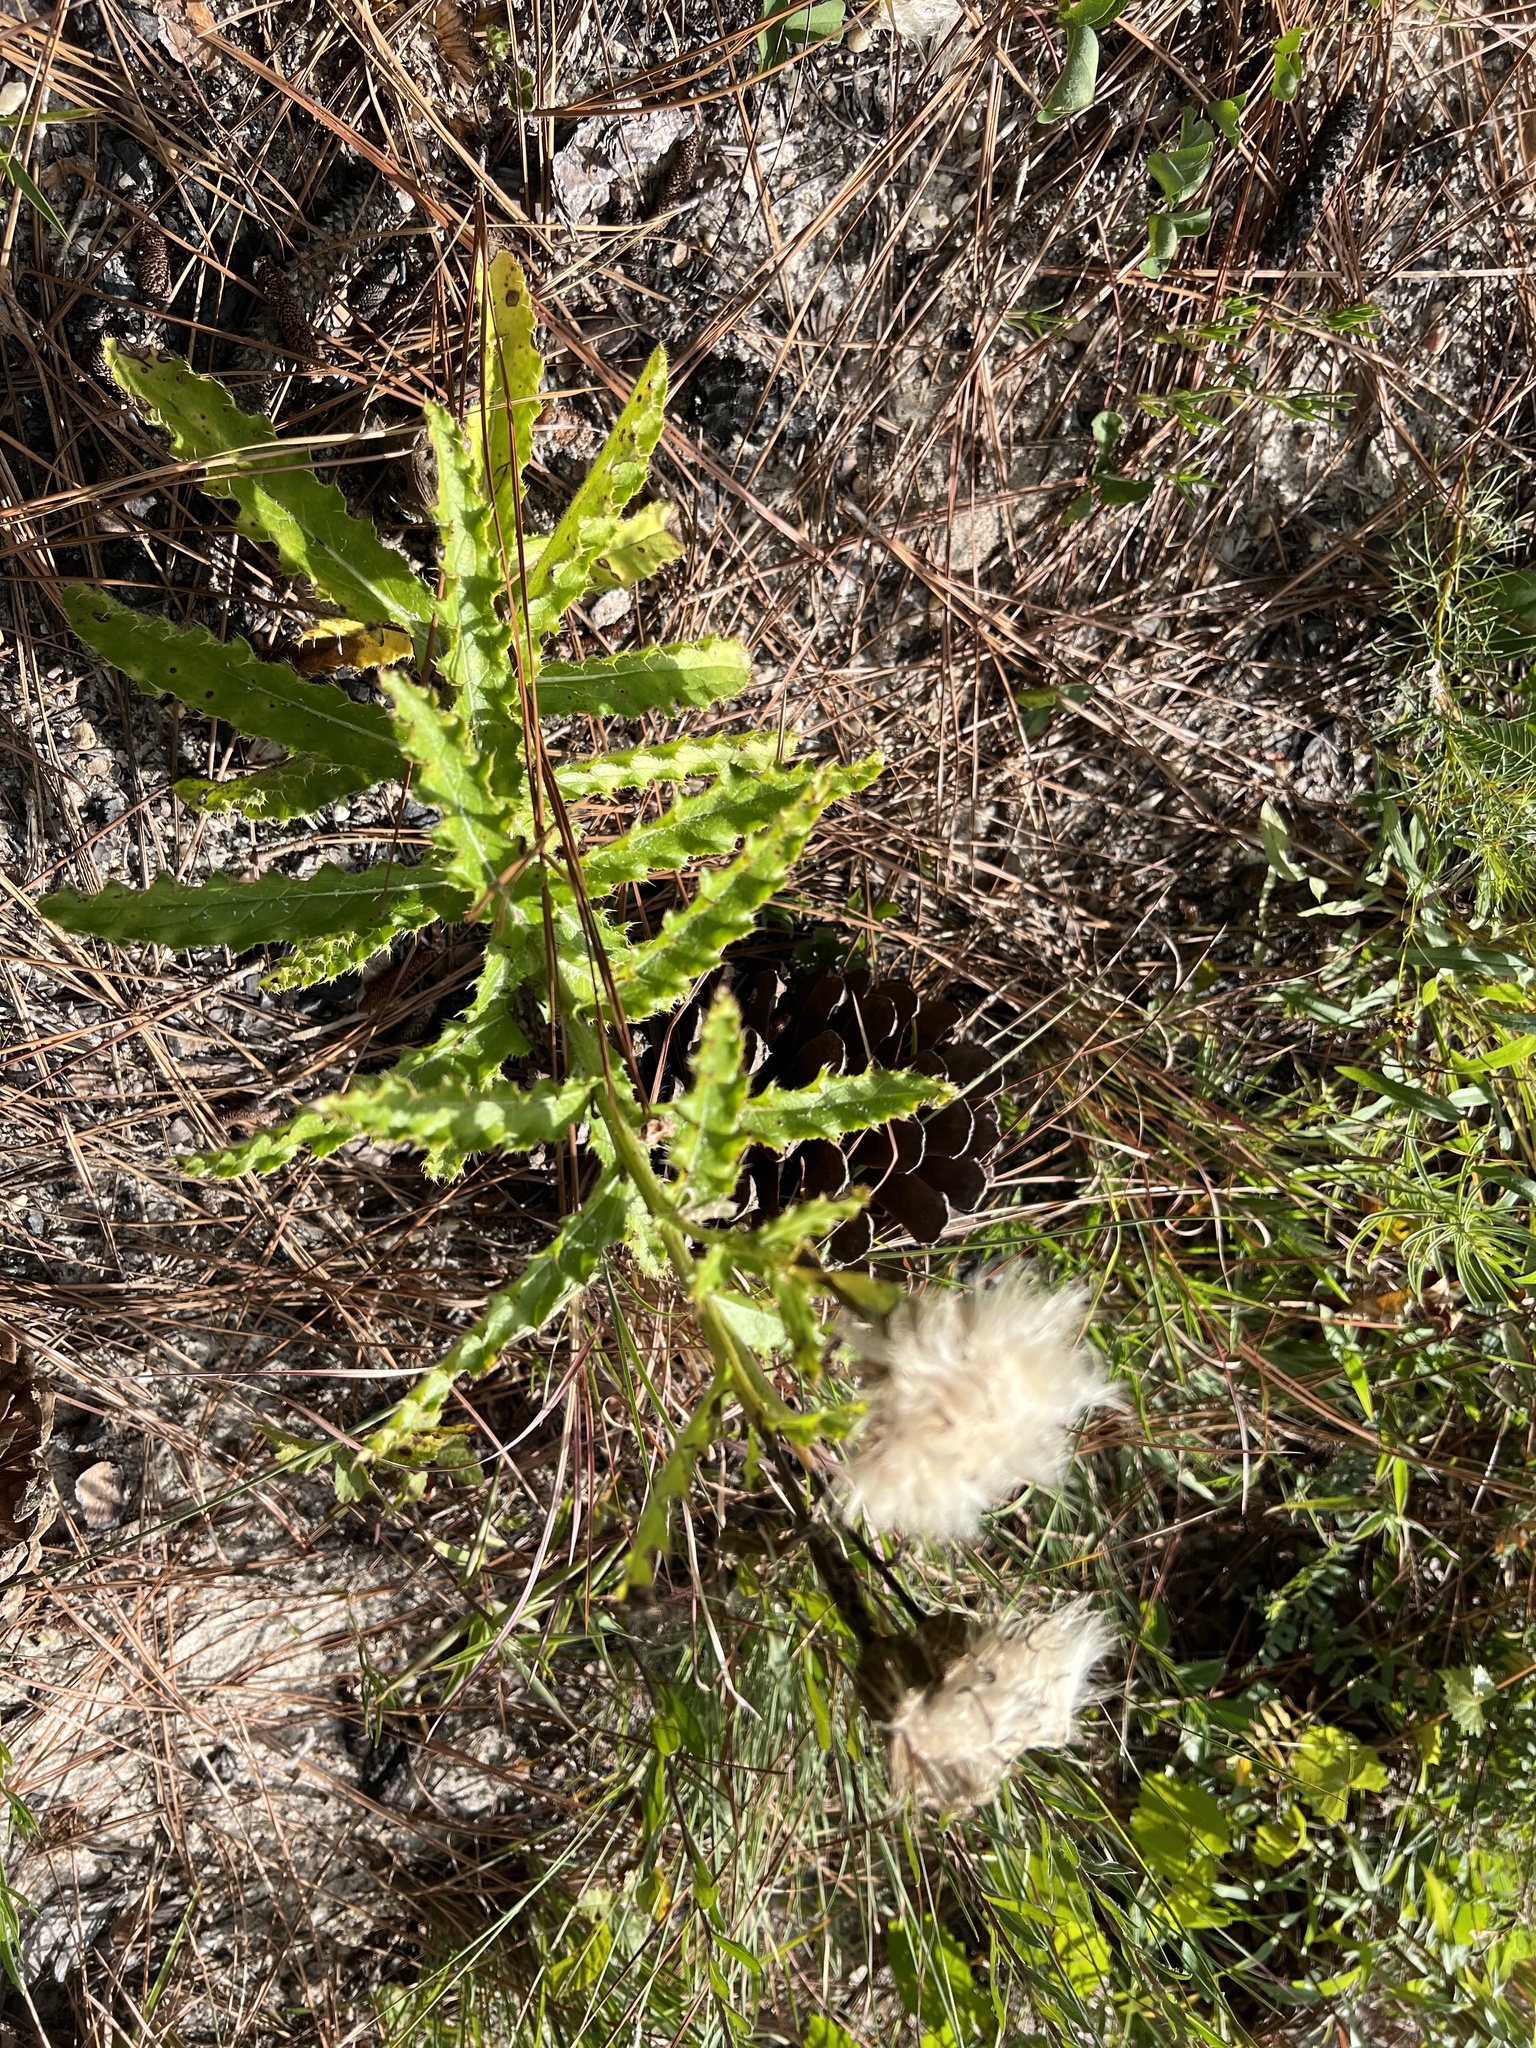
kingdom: Plantae
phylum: Tracheophyta
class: Magnoliopsida
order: Asterales
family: Asteraceae
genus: Cirsium
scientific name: Cirsium repandum
